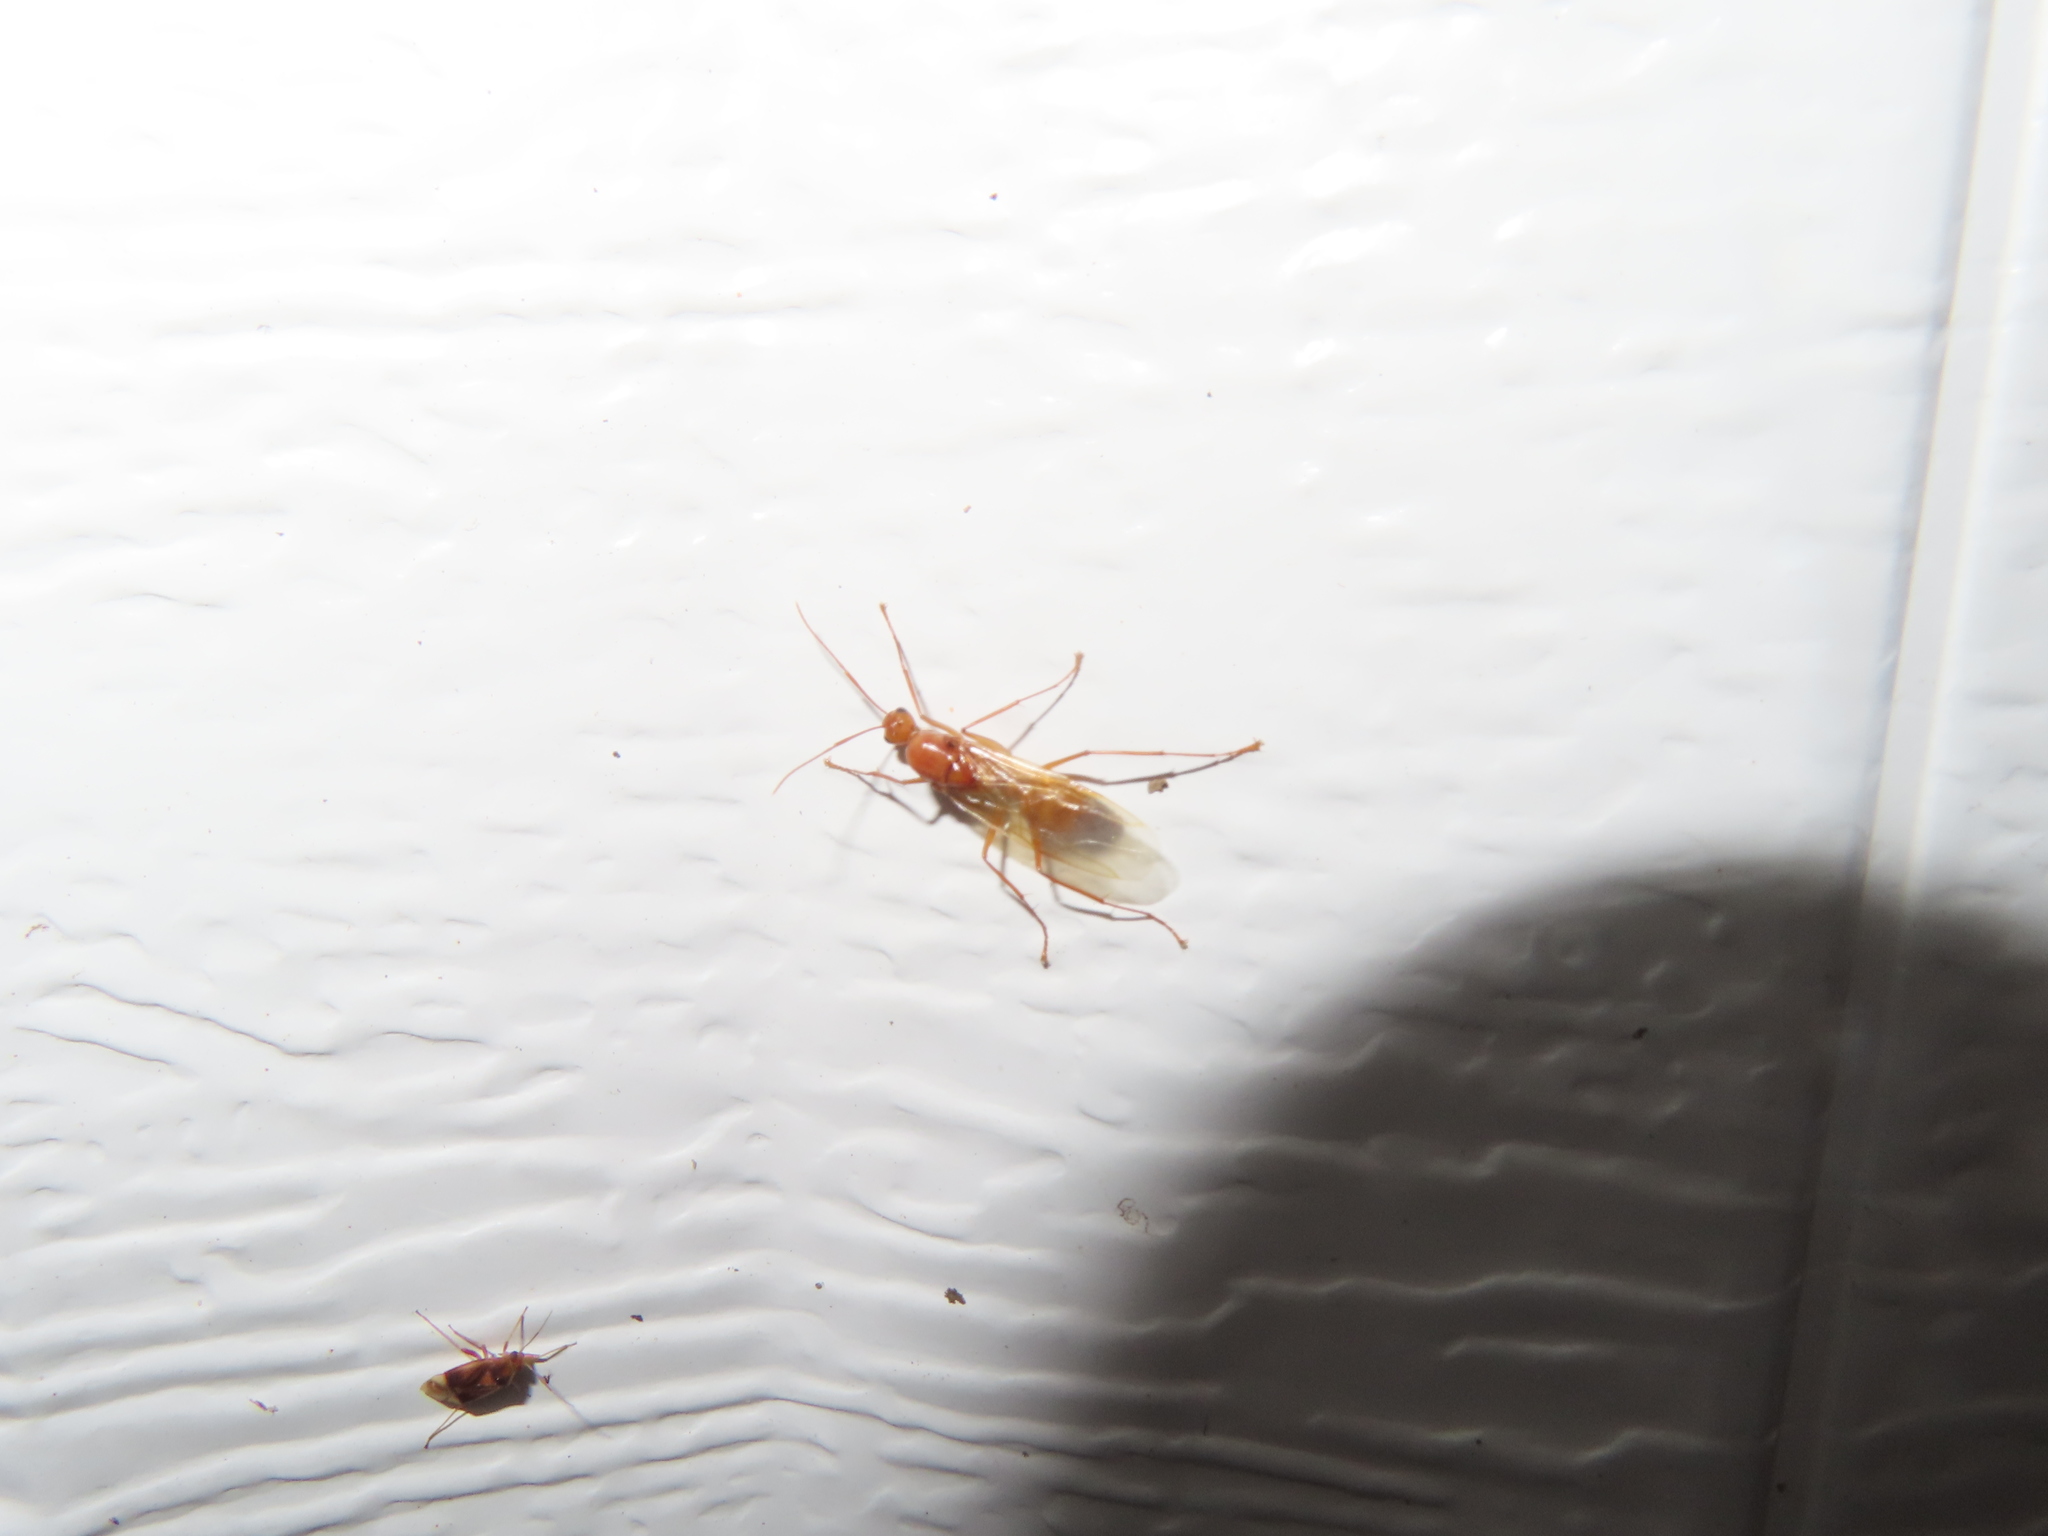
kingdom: Animalia
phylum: Arthropoda
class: Insecta
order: Hymenoptera
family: Formicidae
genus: Camponotus
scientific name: Camponotus castaneus
